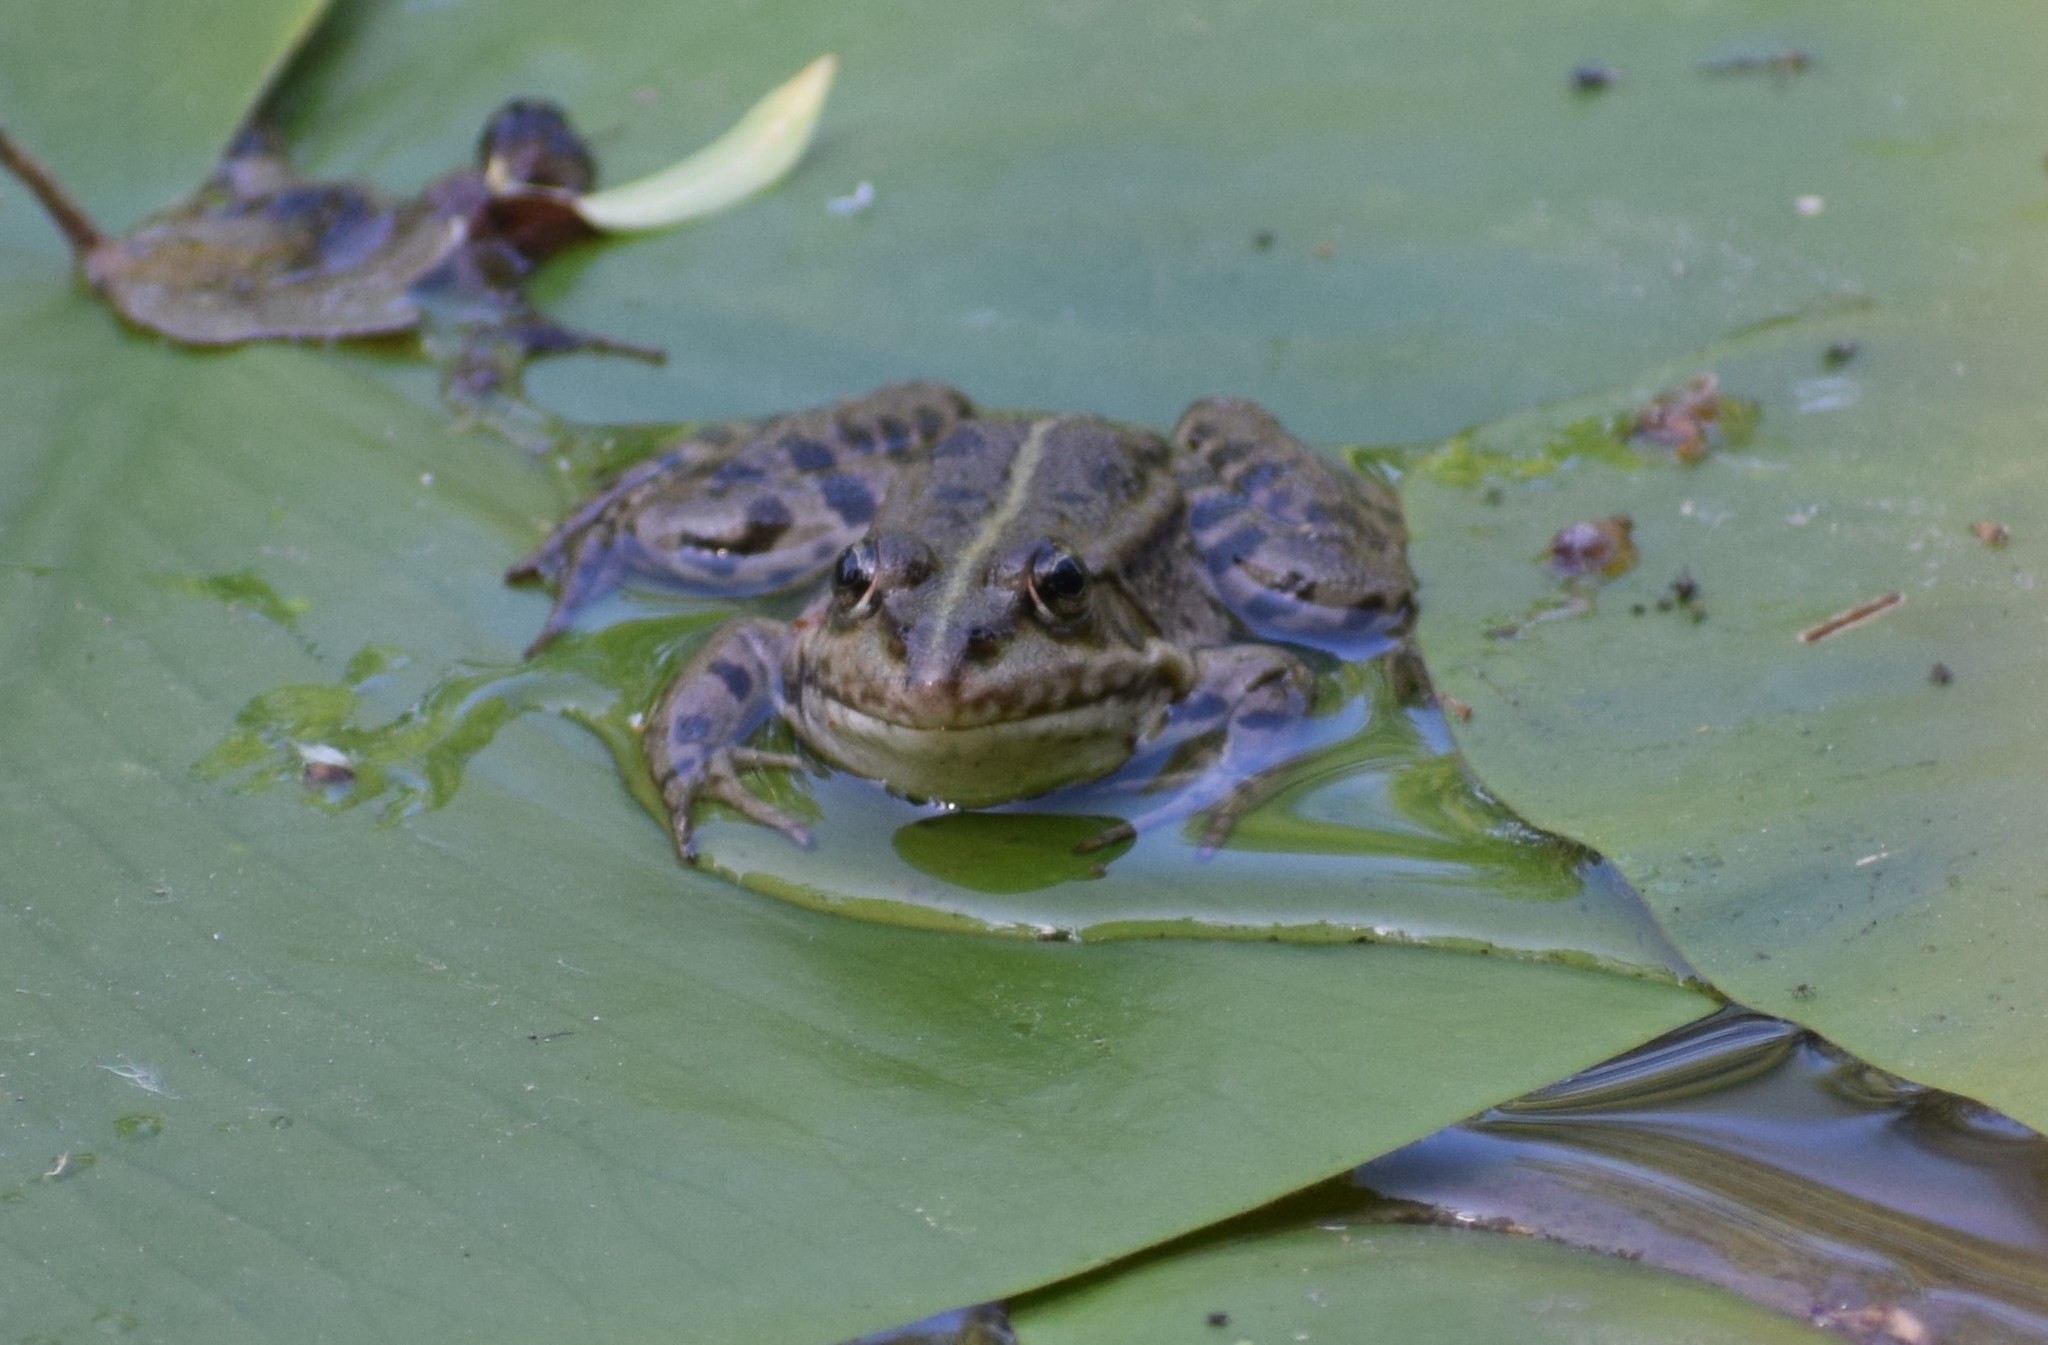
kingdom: Animalia
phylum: Chordata
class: Amphibia
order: Anura
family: Ranidae
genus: Pelophylax
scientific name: Pelophylax
